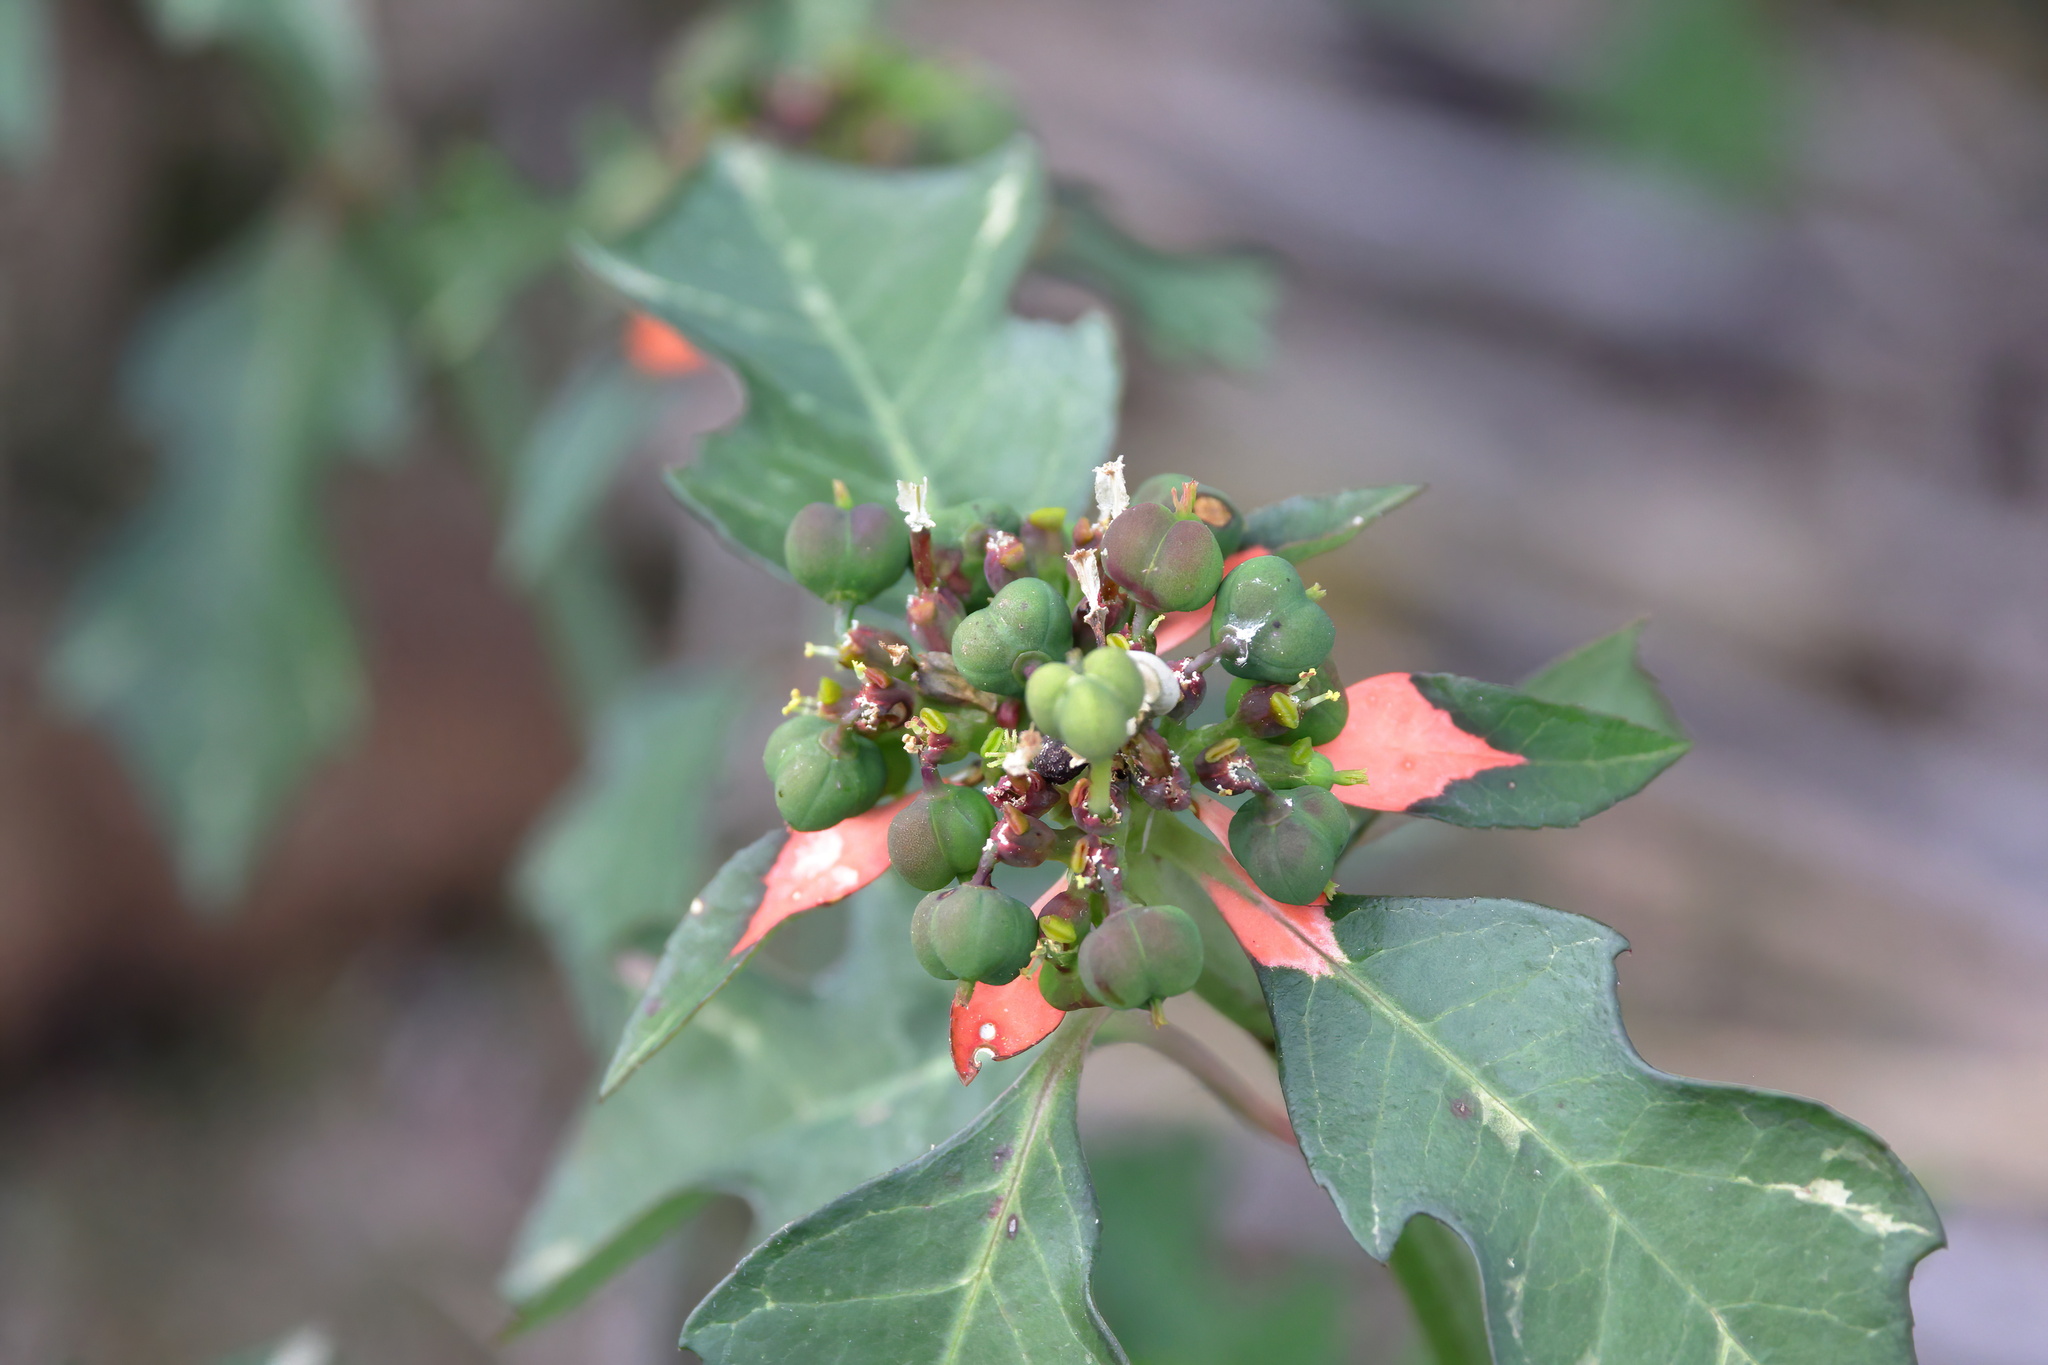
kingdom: Plantae
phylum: Tracheophyta
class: Magnoliopsida
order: Malpighiales
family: Euphorbiaceae
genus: Euphorbia
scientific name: Euphorbia heterophylla
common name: Mexican fireplant
